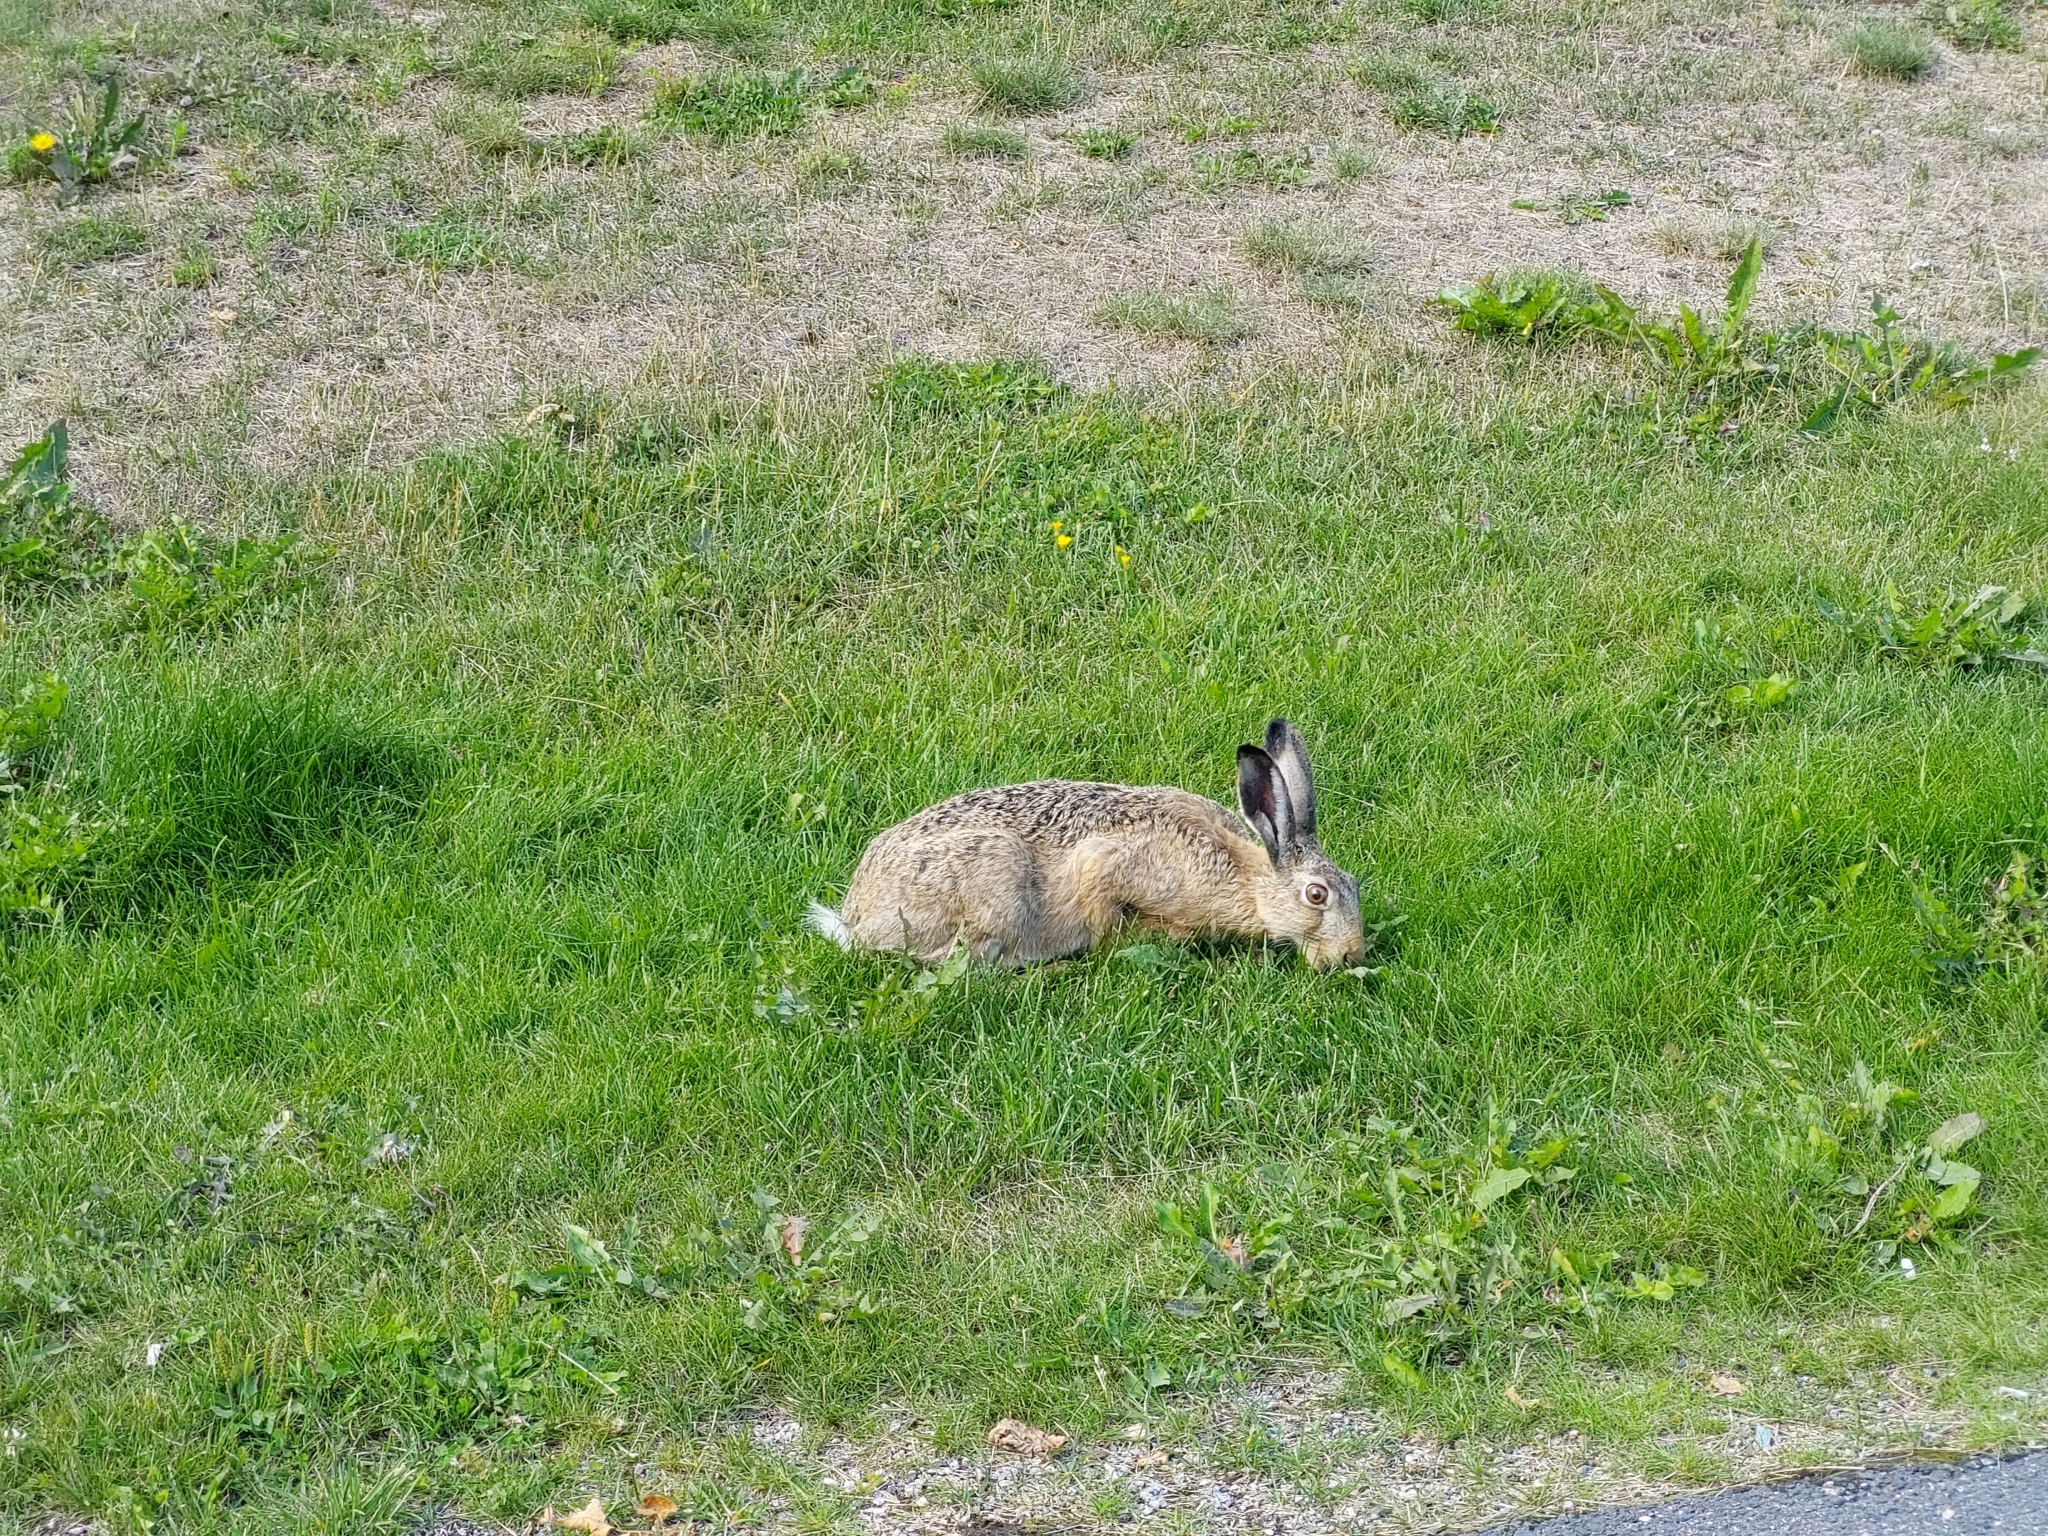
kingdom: Animalia
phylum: Chordata
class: Mammalia
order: Lagomorpha
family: Leporidae
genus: Lepus
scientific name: Lepus europaeus
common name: European hare
